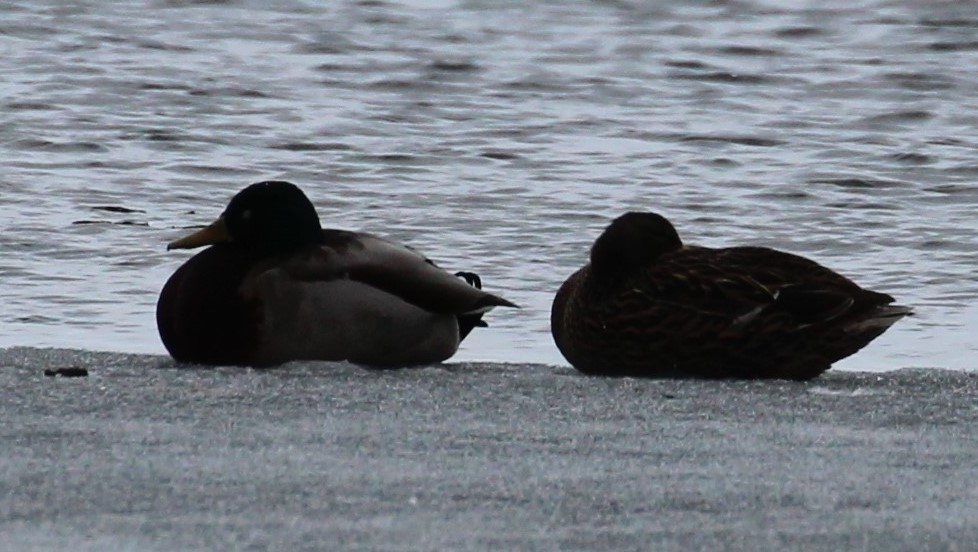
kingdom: Animalia
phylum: Chordata
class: Aves
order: Anseriformes
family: Anatidae
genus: Anas
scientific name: Anas platyrhynchos
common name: Mallard
